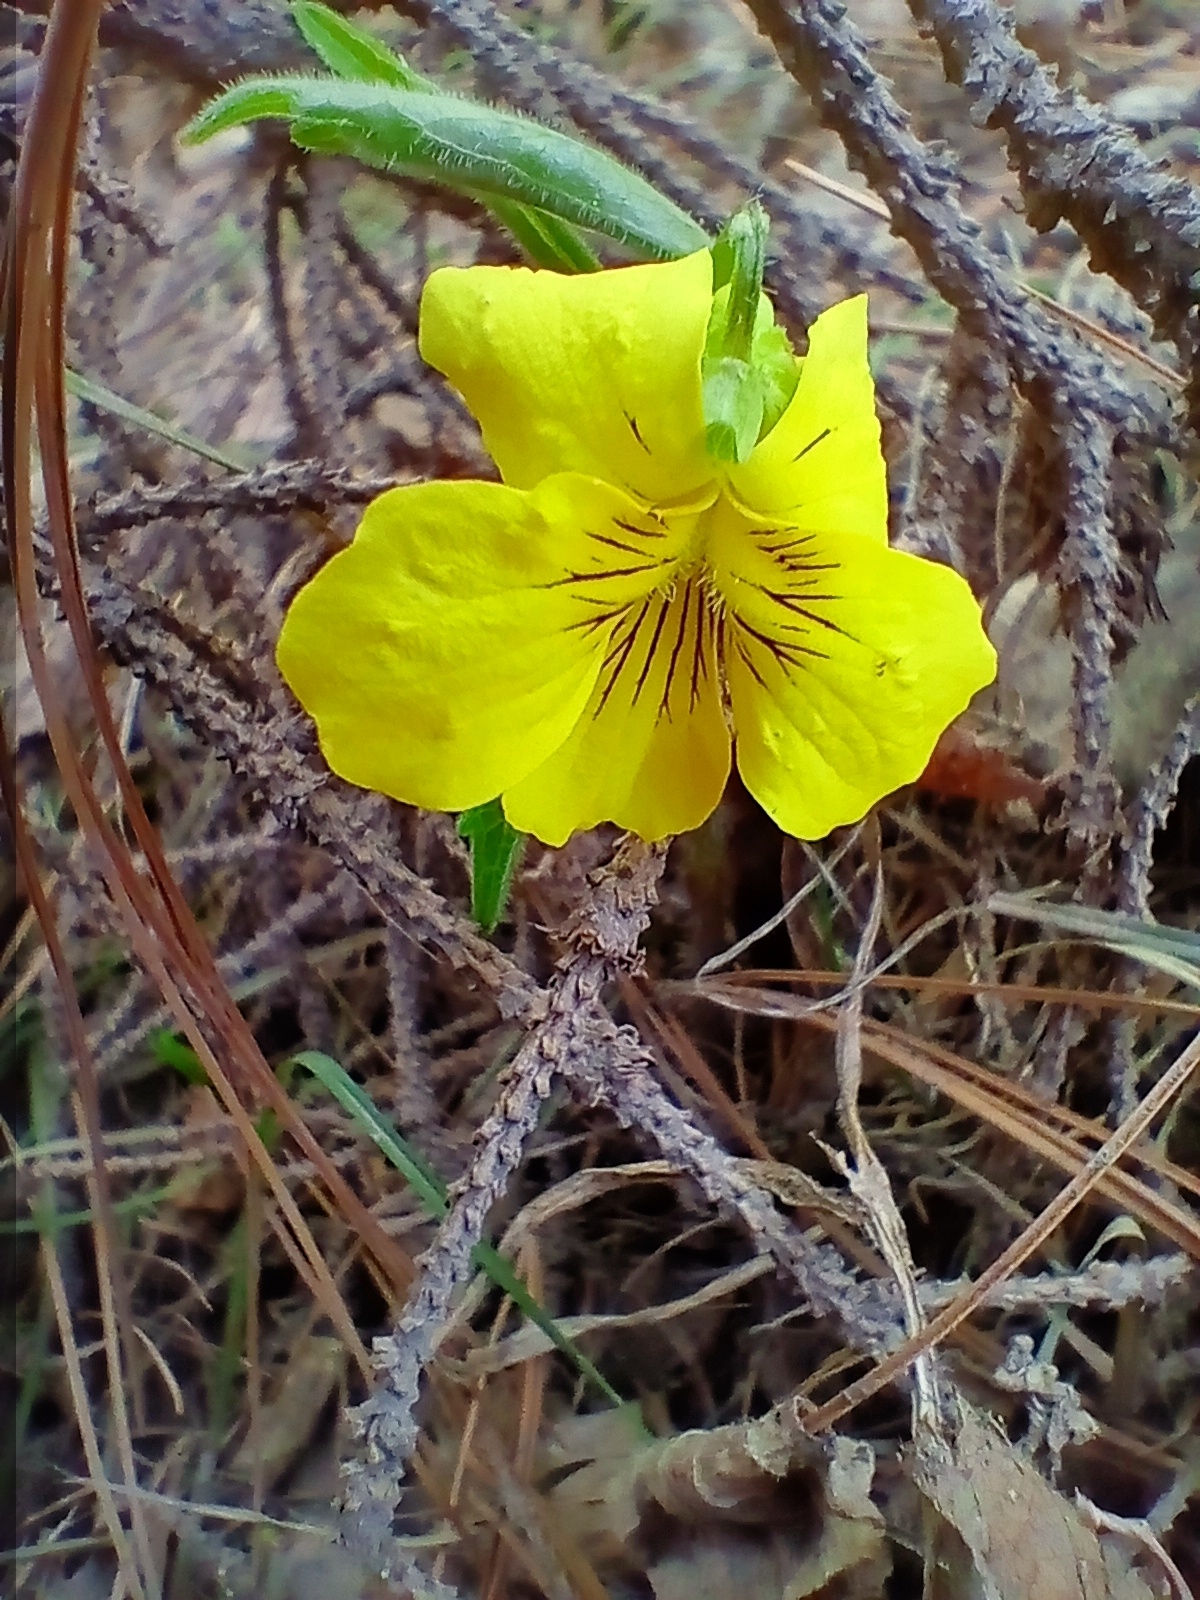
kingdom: Plantae
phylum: Tracheophyta
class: Magnoliopsida
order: Malpighiales
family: Violaceae
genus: Viola
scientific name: Viola uniflora
